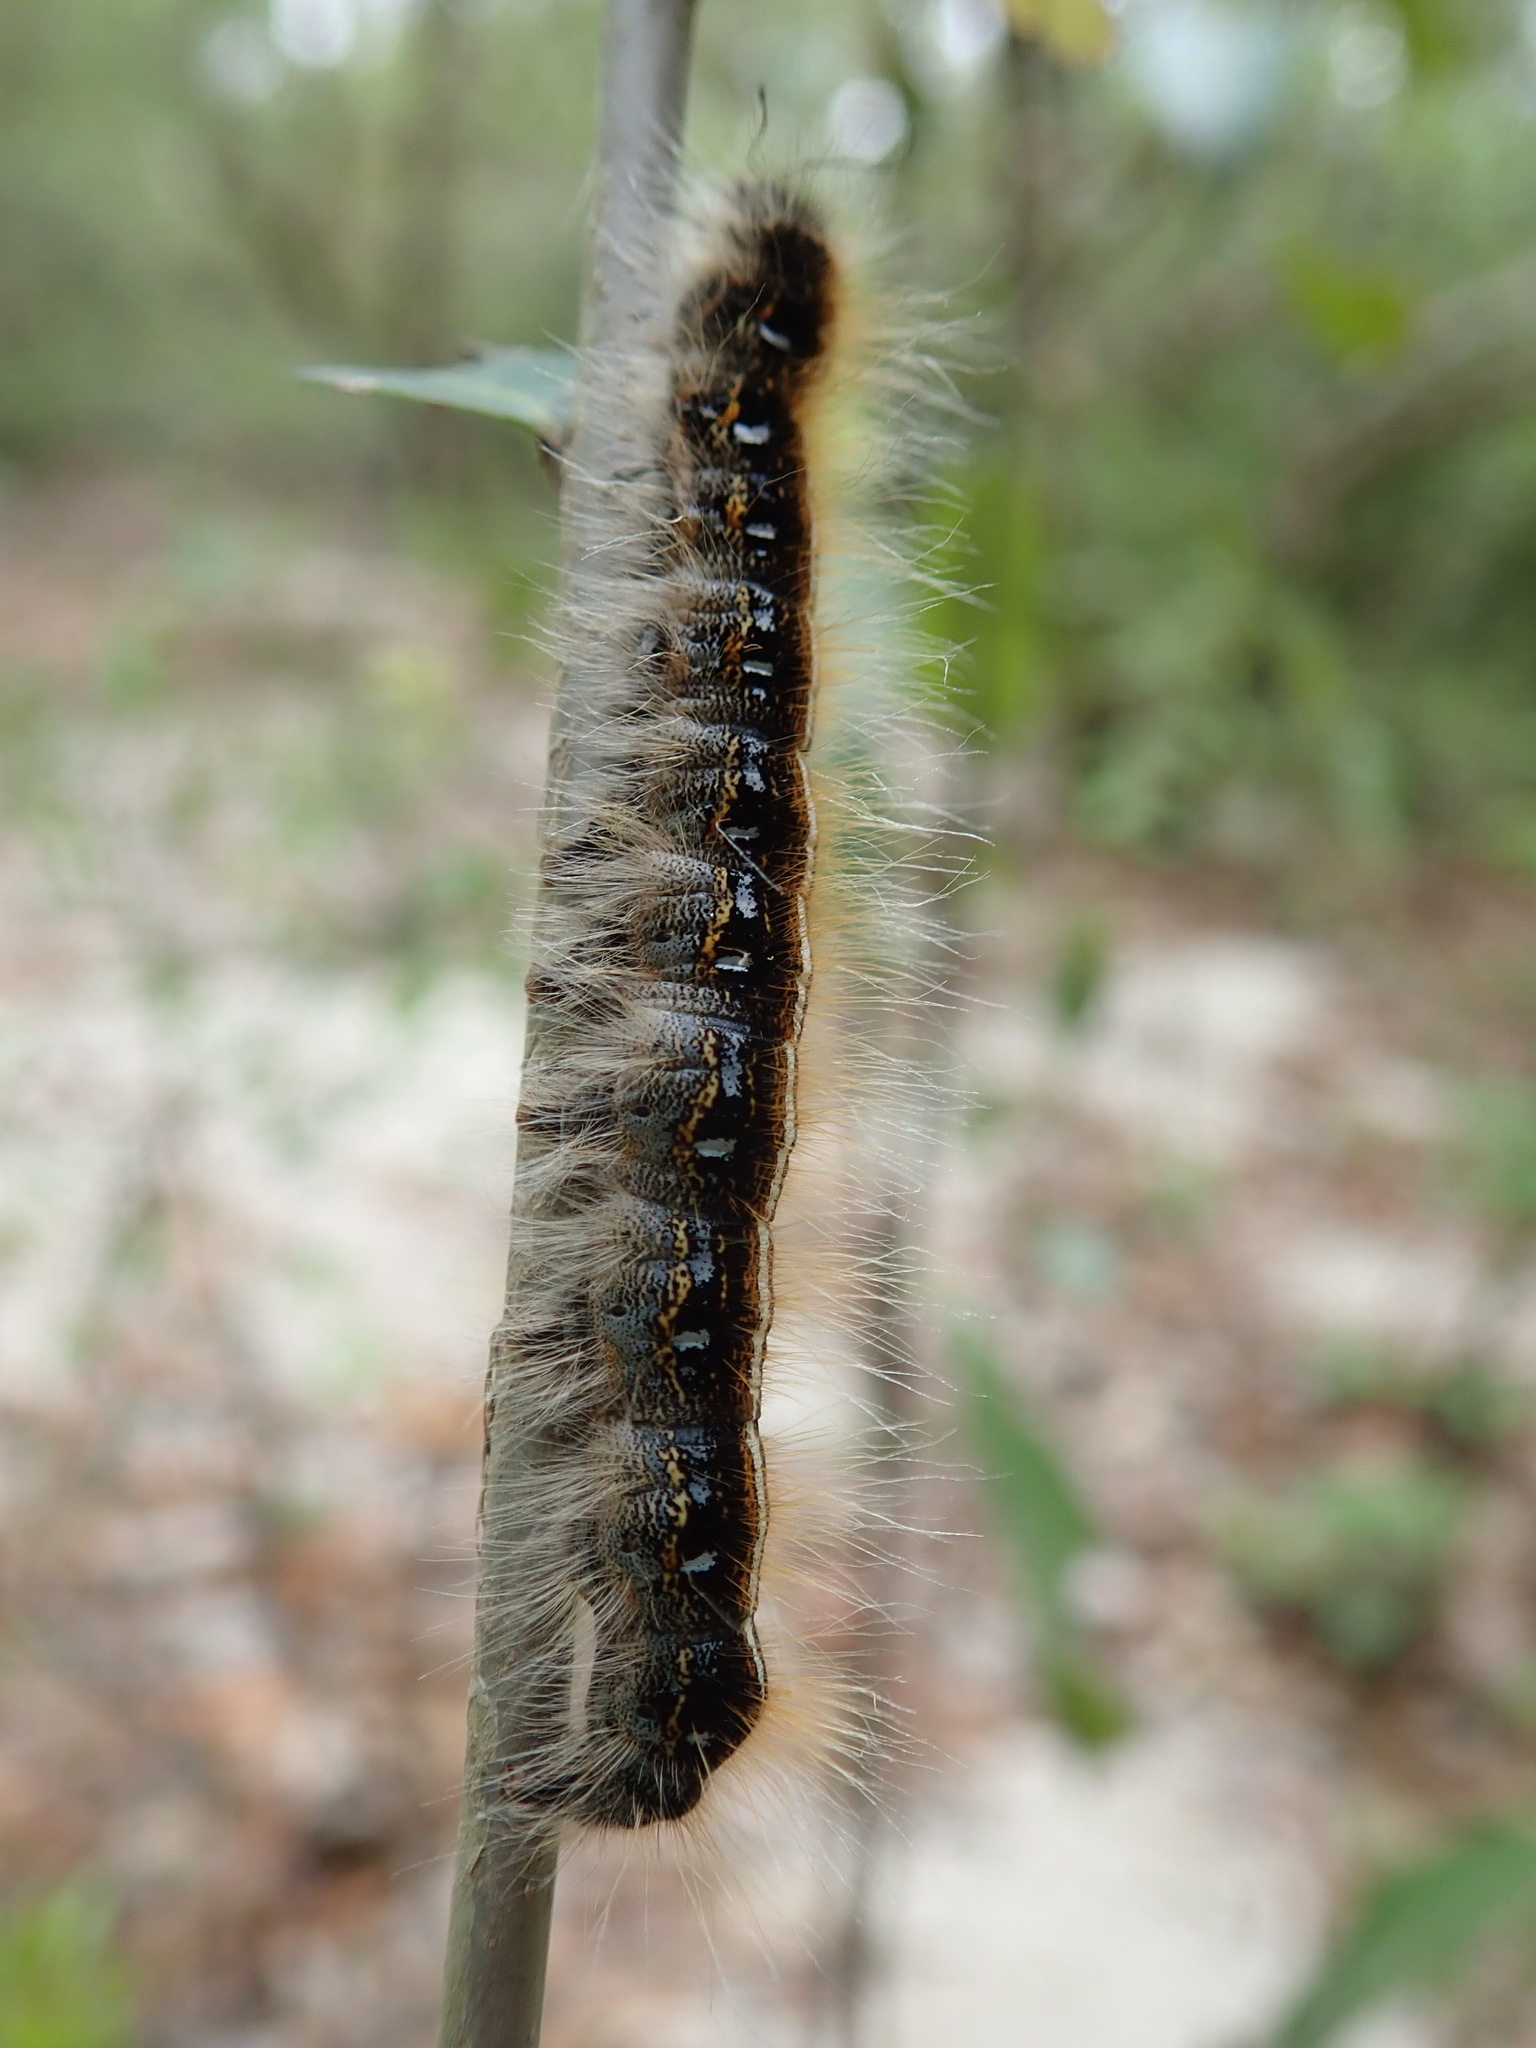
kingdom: Animalia
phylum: Arthropoda
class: Insecta
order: Lepidoptera
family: Lasiocampidae
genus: Malacosoma
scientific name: Malacosoma americana
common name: Eastern tent caterpillar moth
